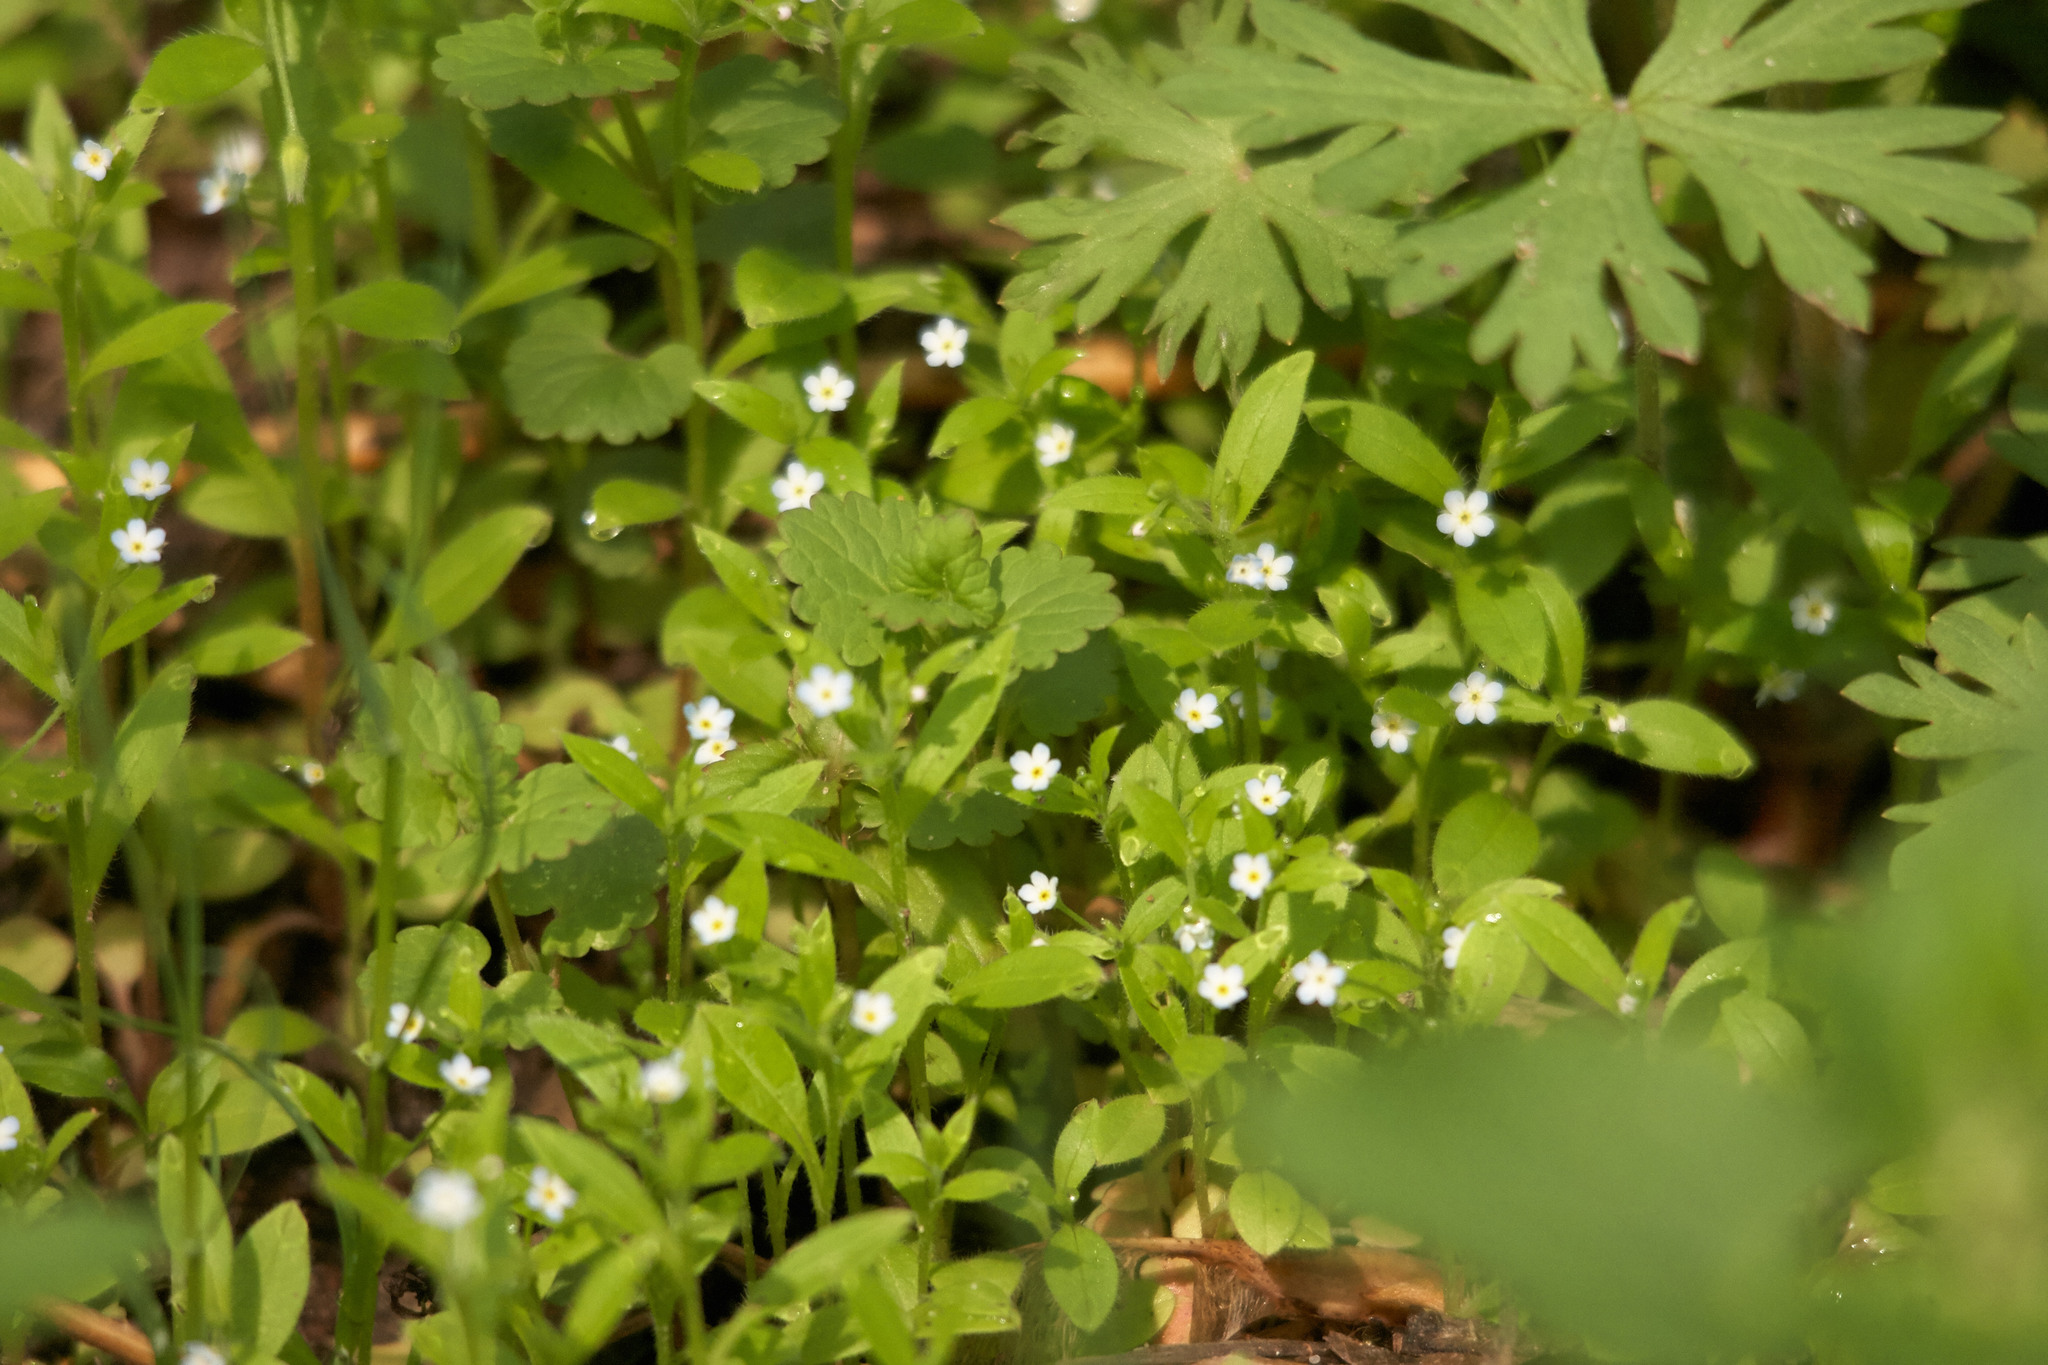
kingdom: Plantae
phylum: Tracheophyta
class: Magnoliopsida
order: Boraginales
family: Boraginaceae
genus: Myosotis
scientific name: Myosotis sparsiflora
